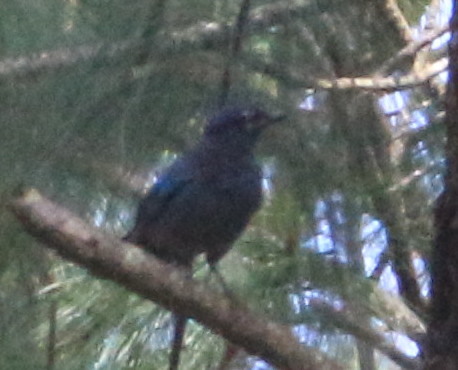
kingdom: Animalia
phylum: Chordata
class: Aves
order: Passeriformes
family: Corvidae
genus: Cyanocitta
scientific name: Cyanocitta stelleri
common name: Steller's jay
